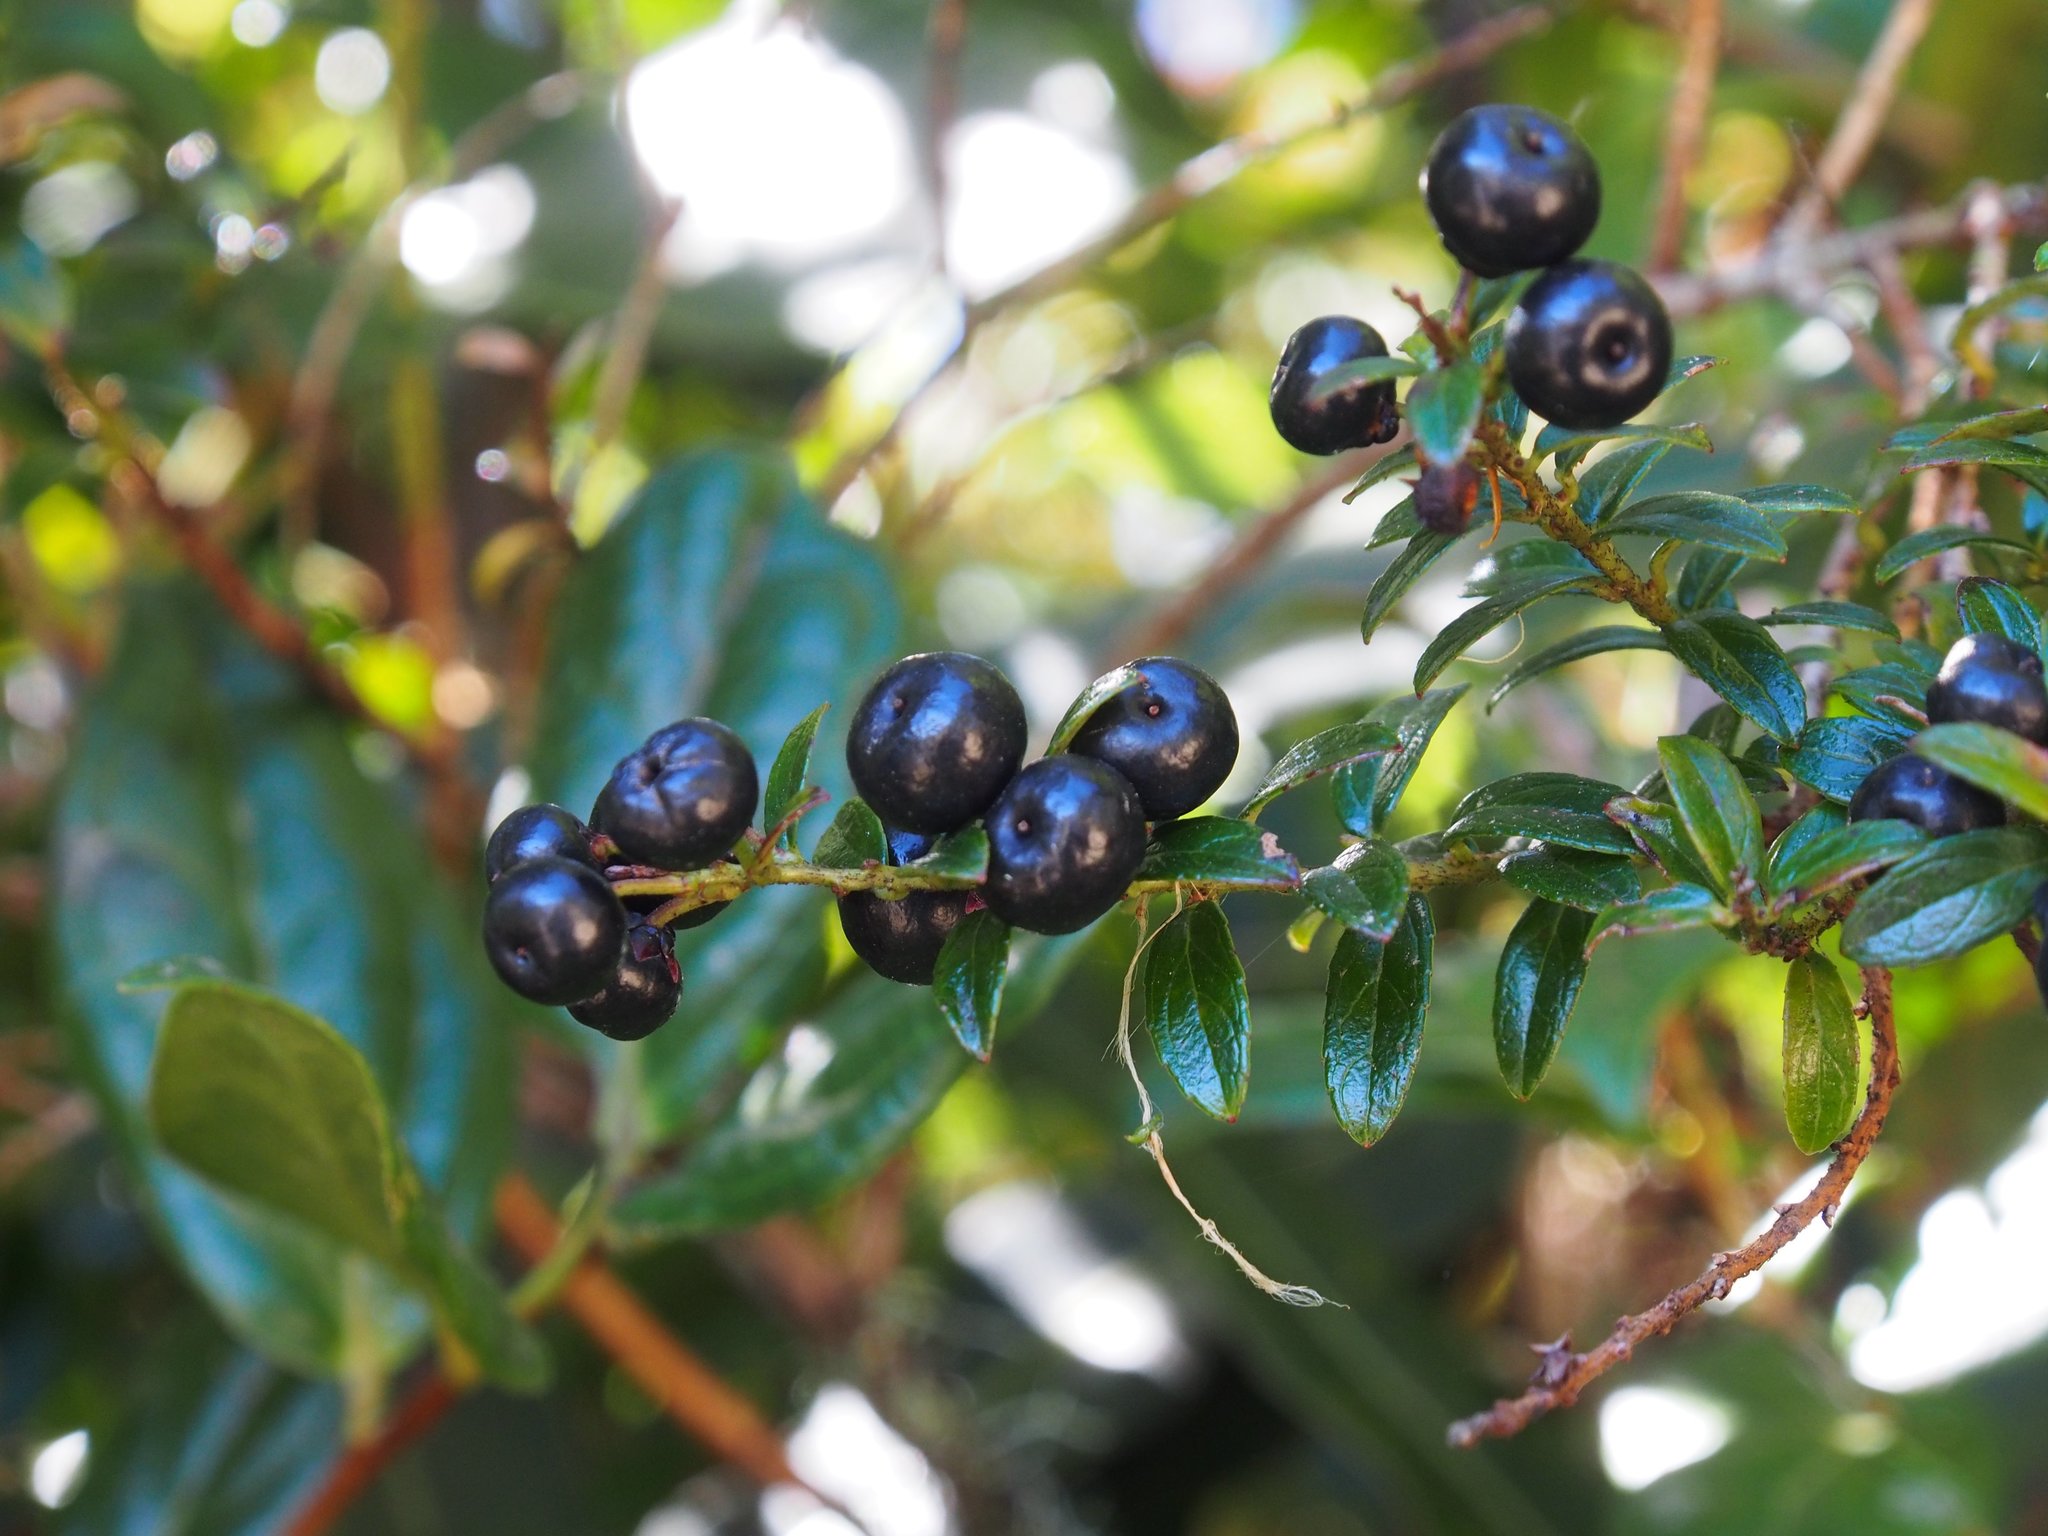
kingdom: Plantae
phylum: Tracheophyta
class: Magnoliopsida
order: Ericales
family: Ericaceae
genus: Gaultheria
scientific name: Gaultheria myrsinoides
